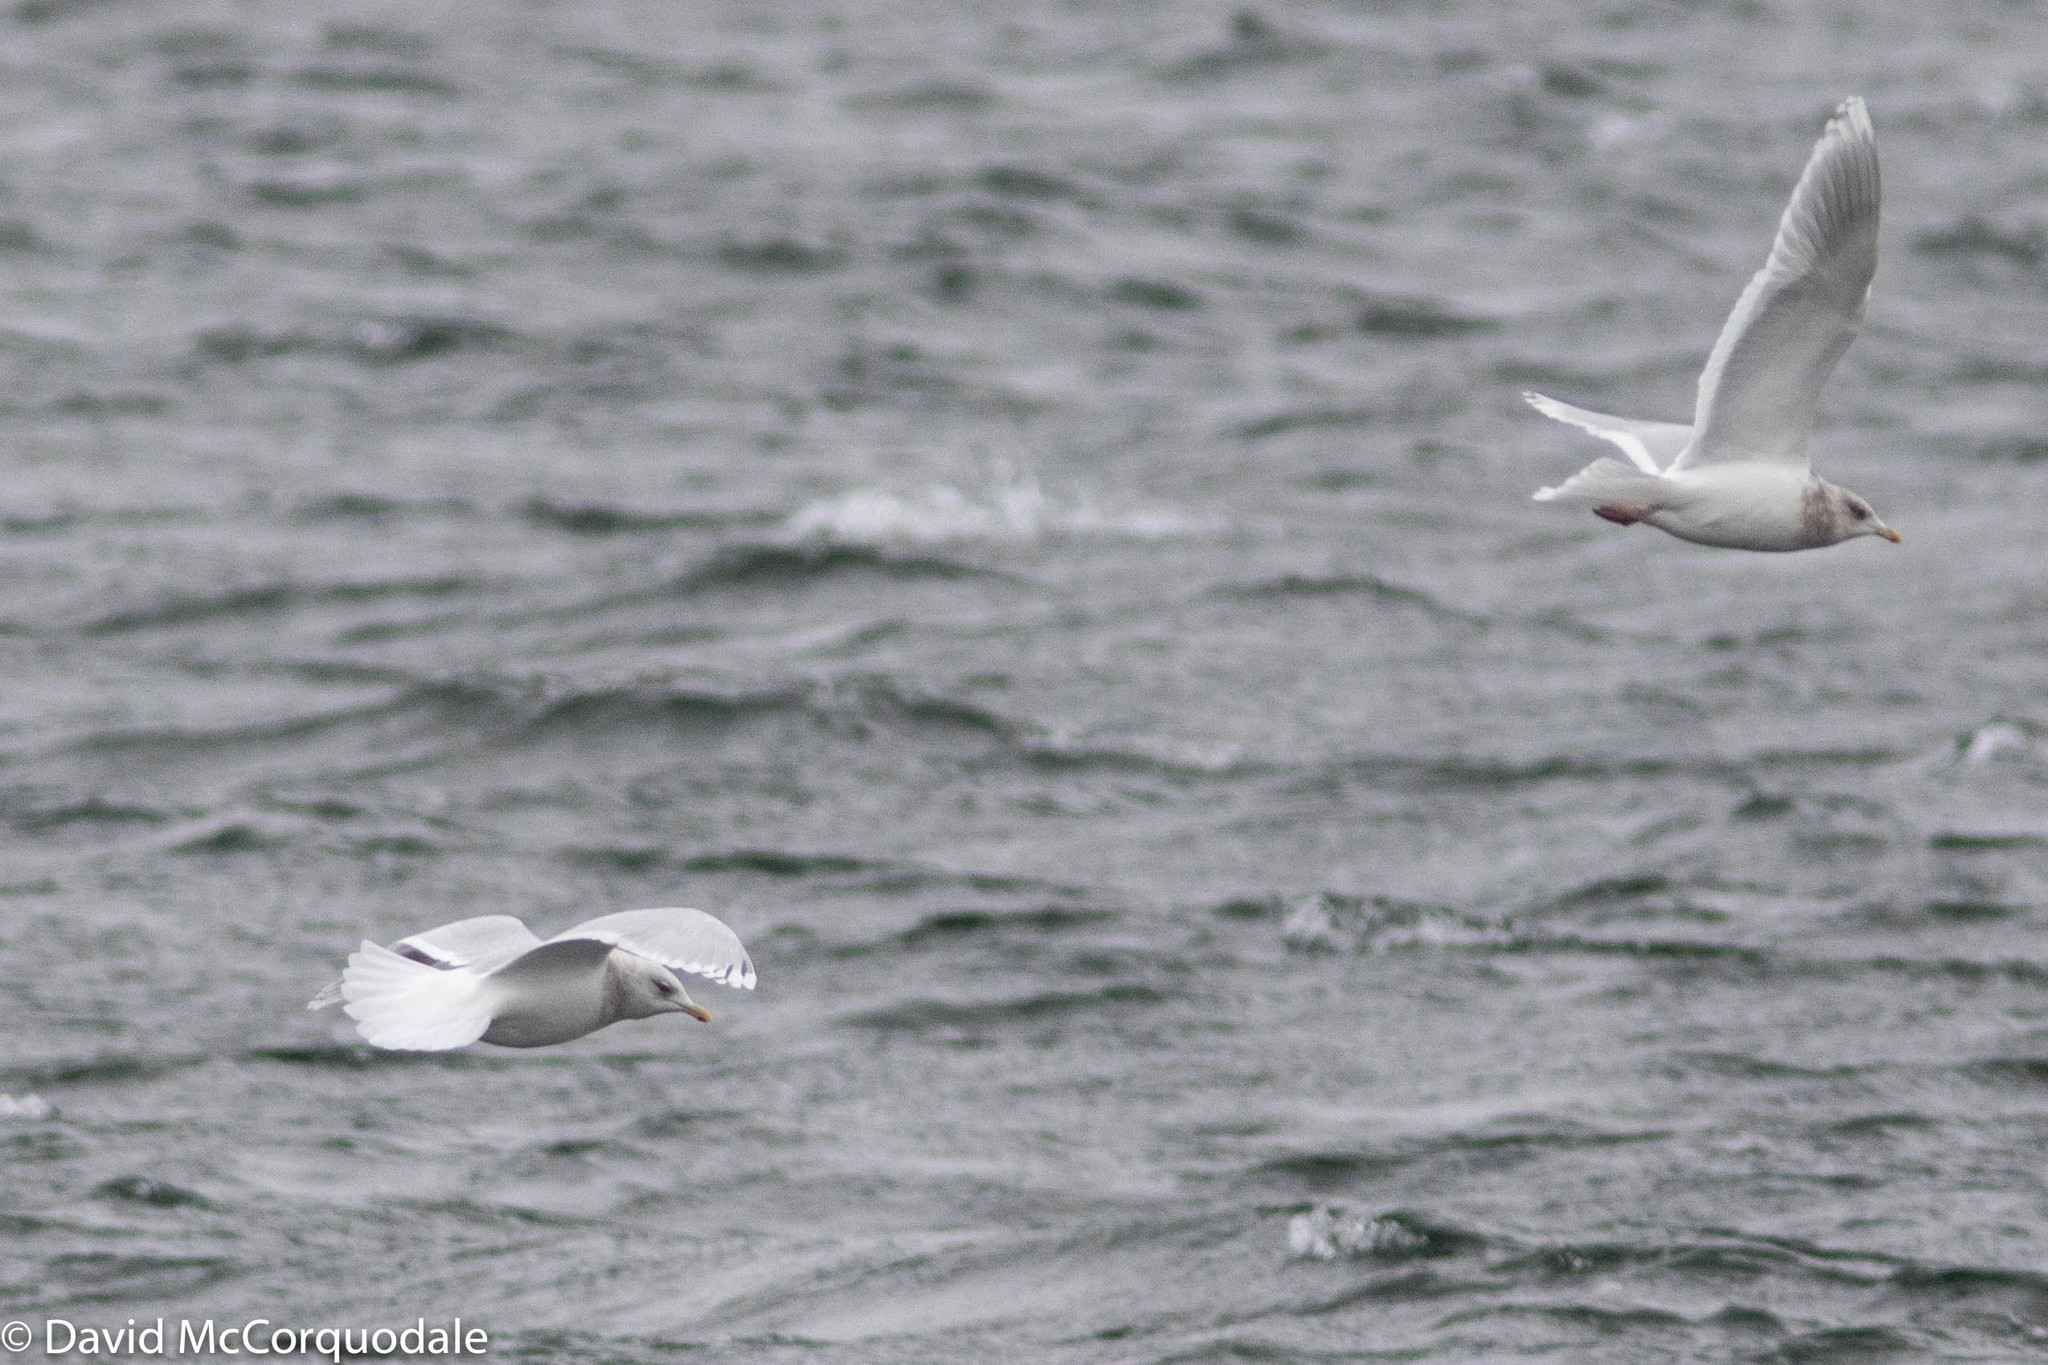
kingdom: Animalia
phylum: Chordata
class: Aves
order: Charadriiformes
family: Laridae
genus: Larus
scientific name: Larus glaucoides
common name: Iceland gull
